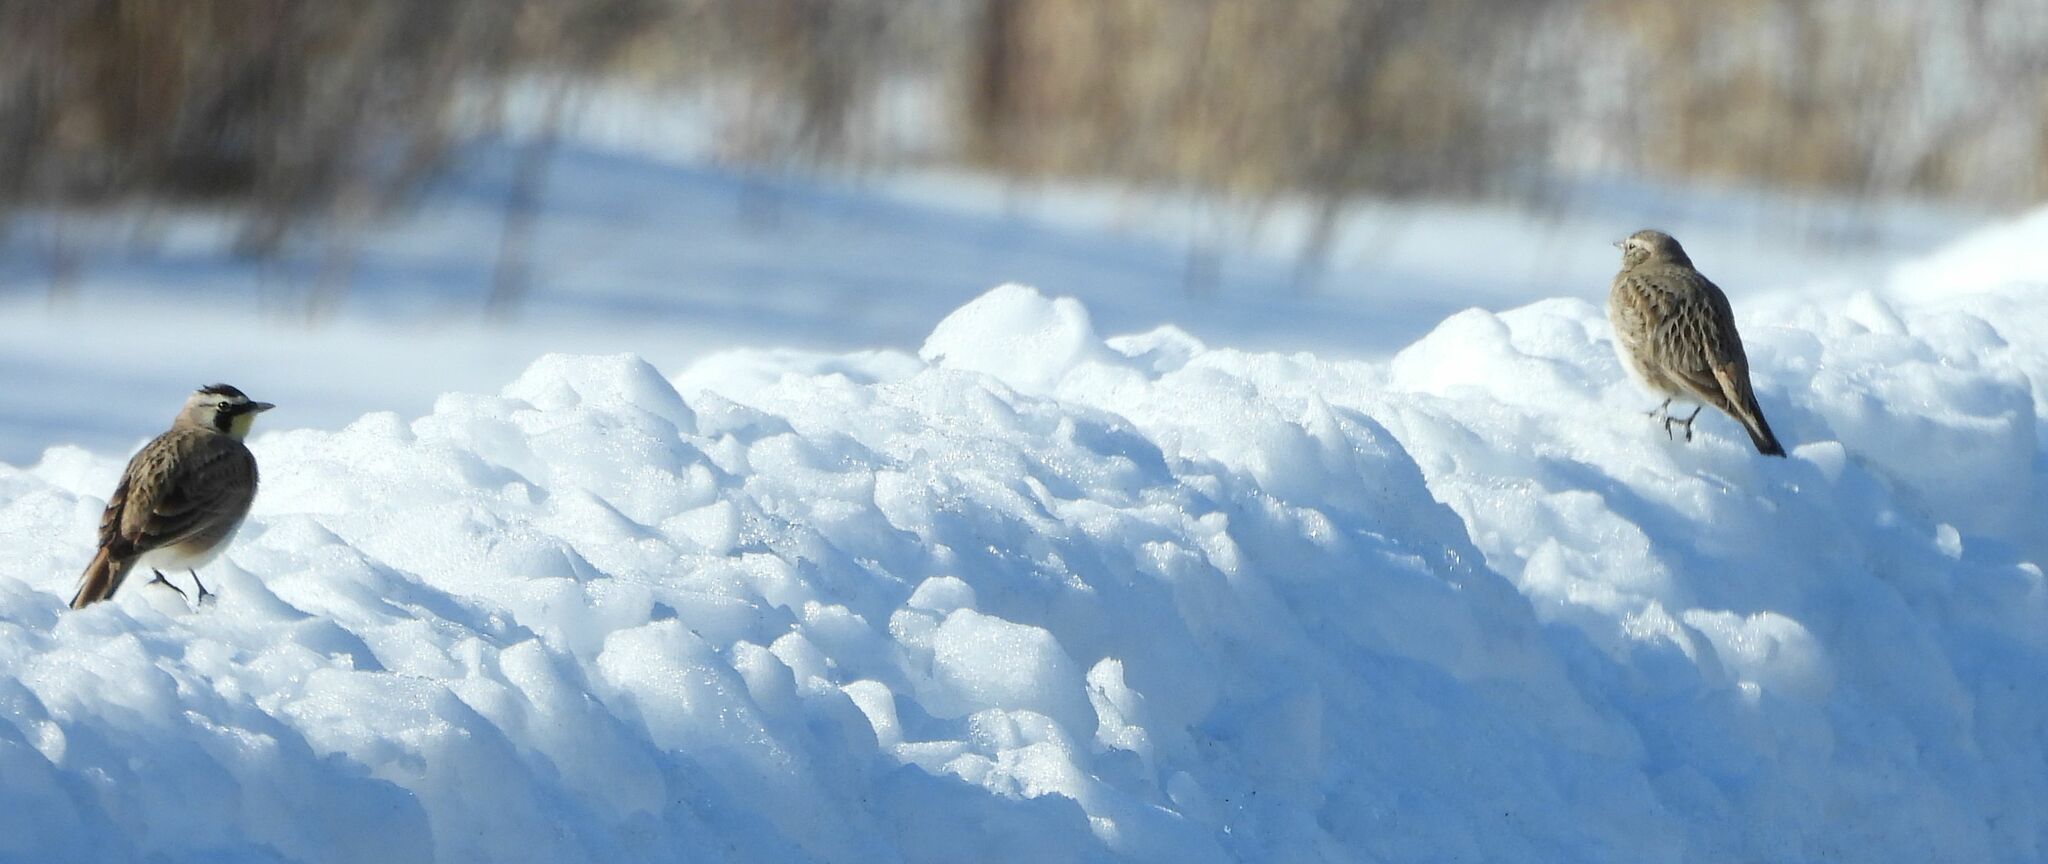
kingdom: Animalia
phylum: Chordata
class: Aves
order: Passeriformes
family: Alaudidae
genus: Eremophila
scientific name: Eremophila alpestris
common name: Horned lark
